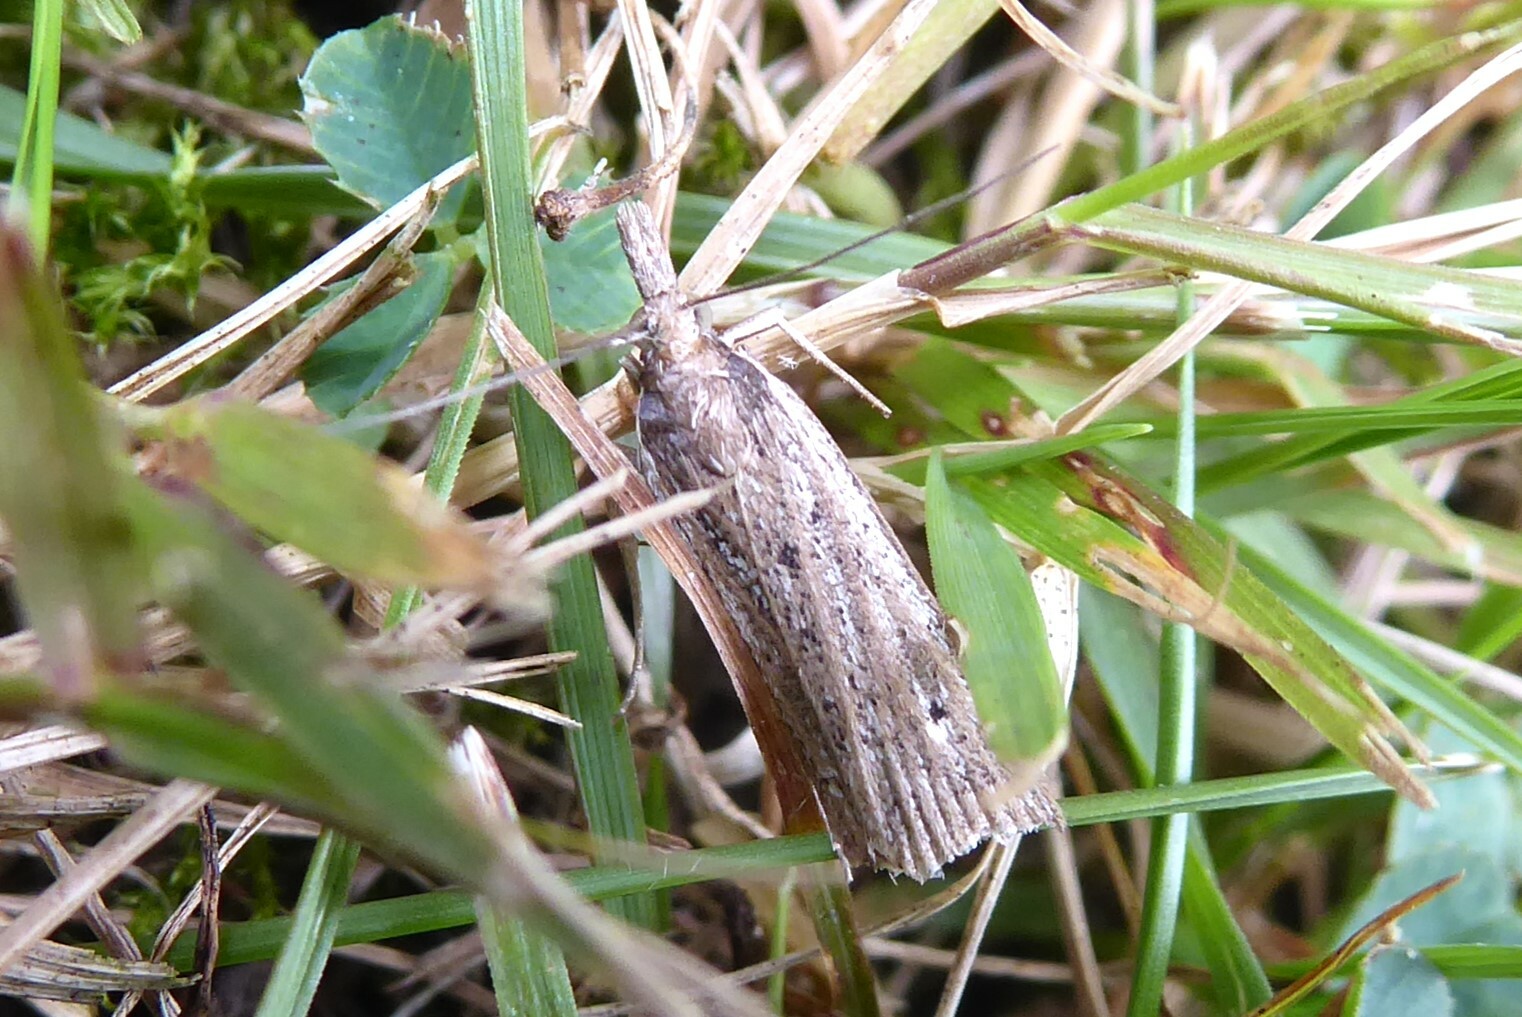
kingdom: Animalia
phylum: Arthropoda
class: Insecta
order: Lepidoptera
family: Crambidae
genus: Eudonia
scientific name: Eudonia sabulosella
